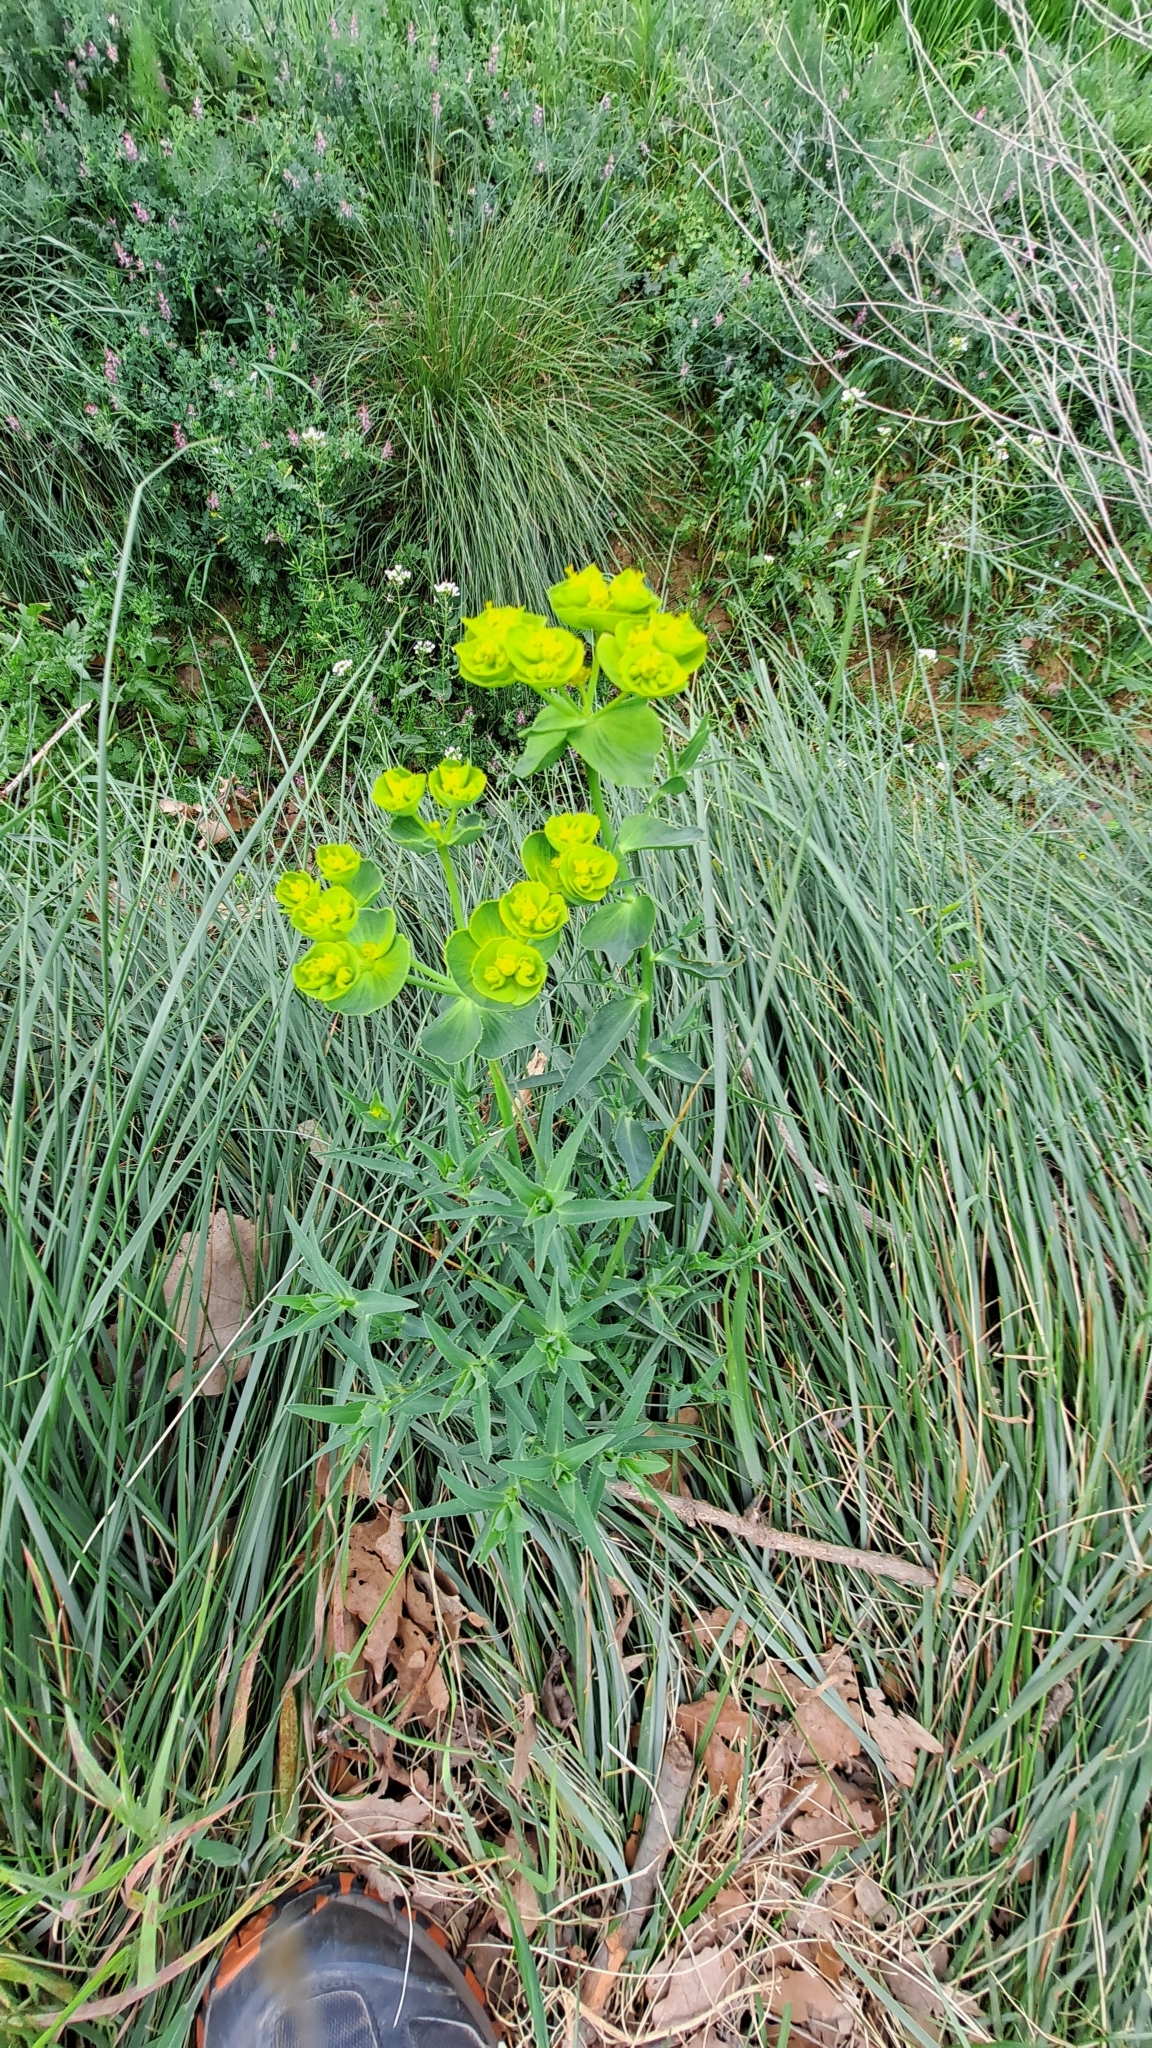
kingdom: Plantae
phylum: Tracheophyta
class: Magnoliopsida
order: Malpighiales
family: Euphorbiaceae
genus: Euphorbia
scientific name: Euphorbia serrata
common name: Serrate spurge
